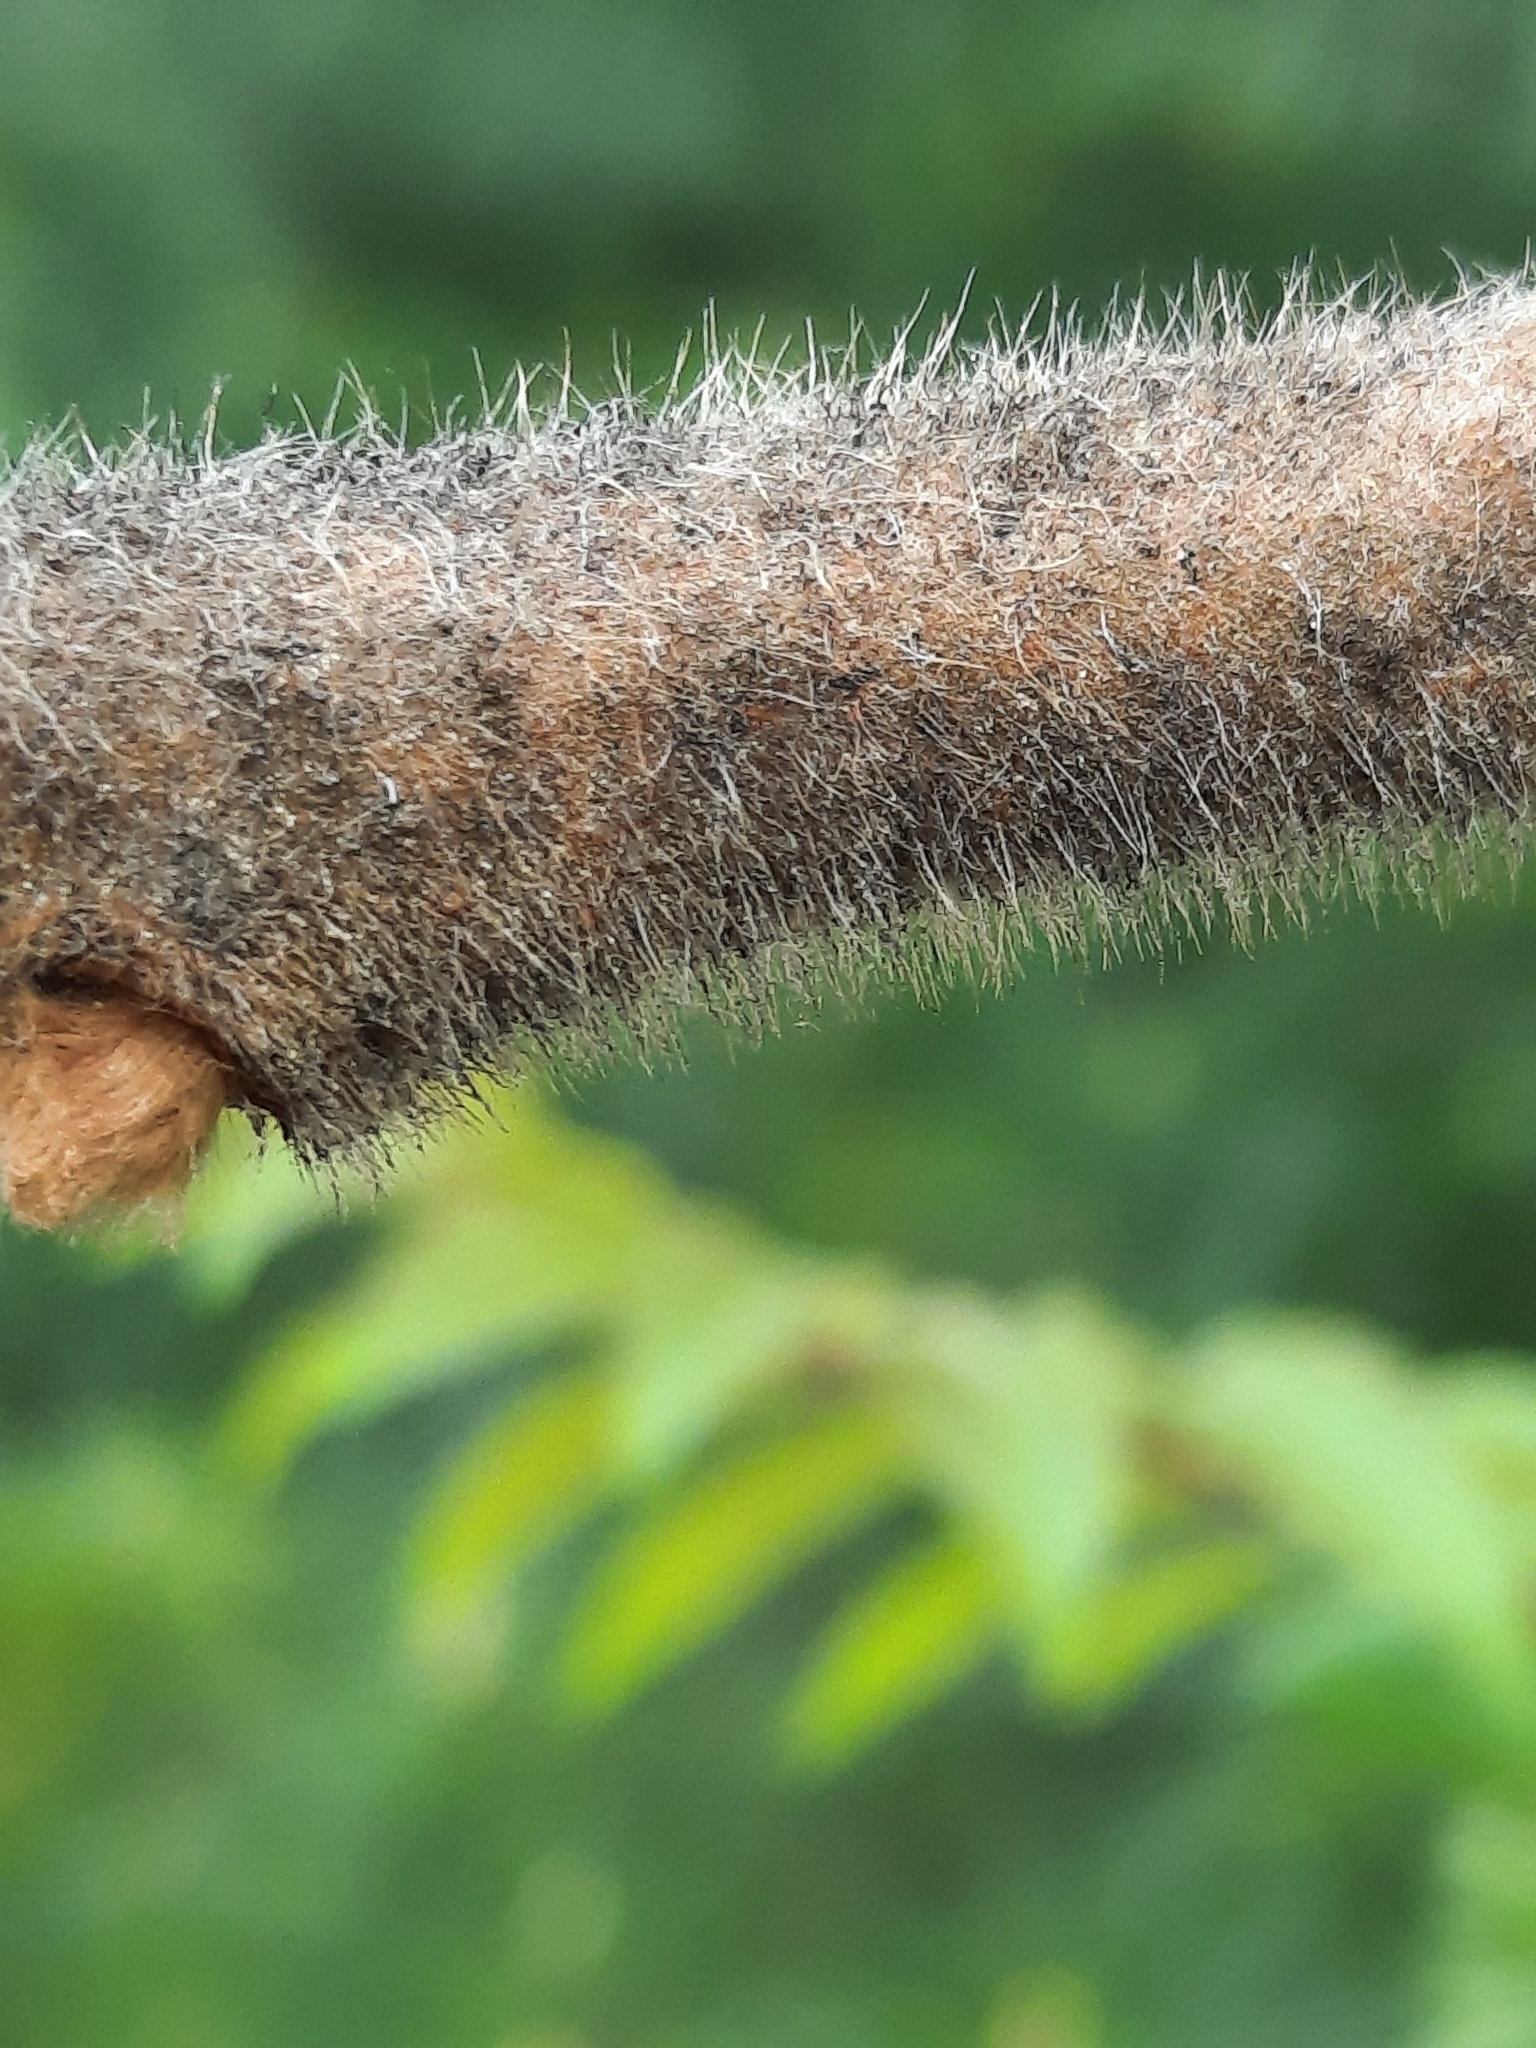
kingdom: Plantae
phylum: Tracheophyta
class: Magnoliopsida
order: Sapindales
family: Anacardiaceae
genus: Rhus
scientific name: Rhus typhina
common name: Staghorn sumac
